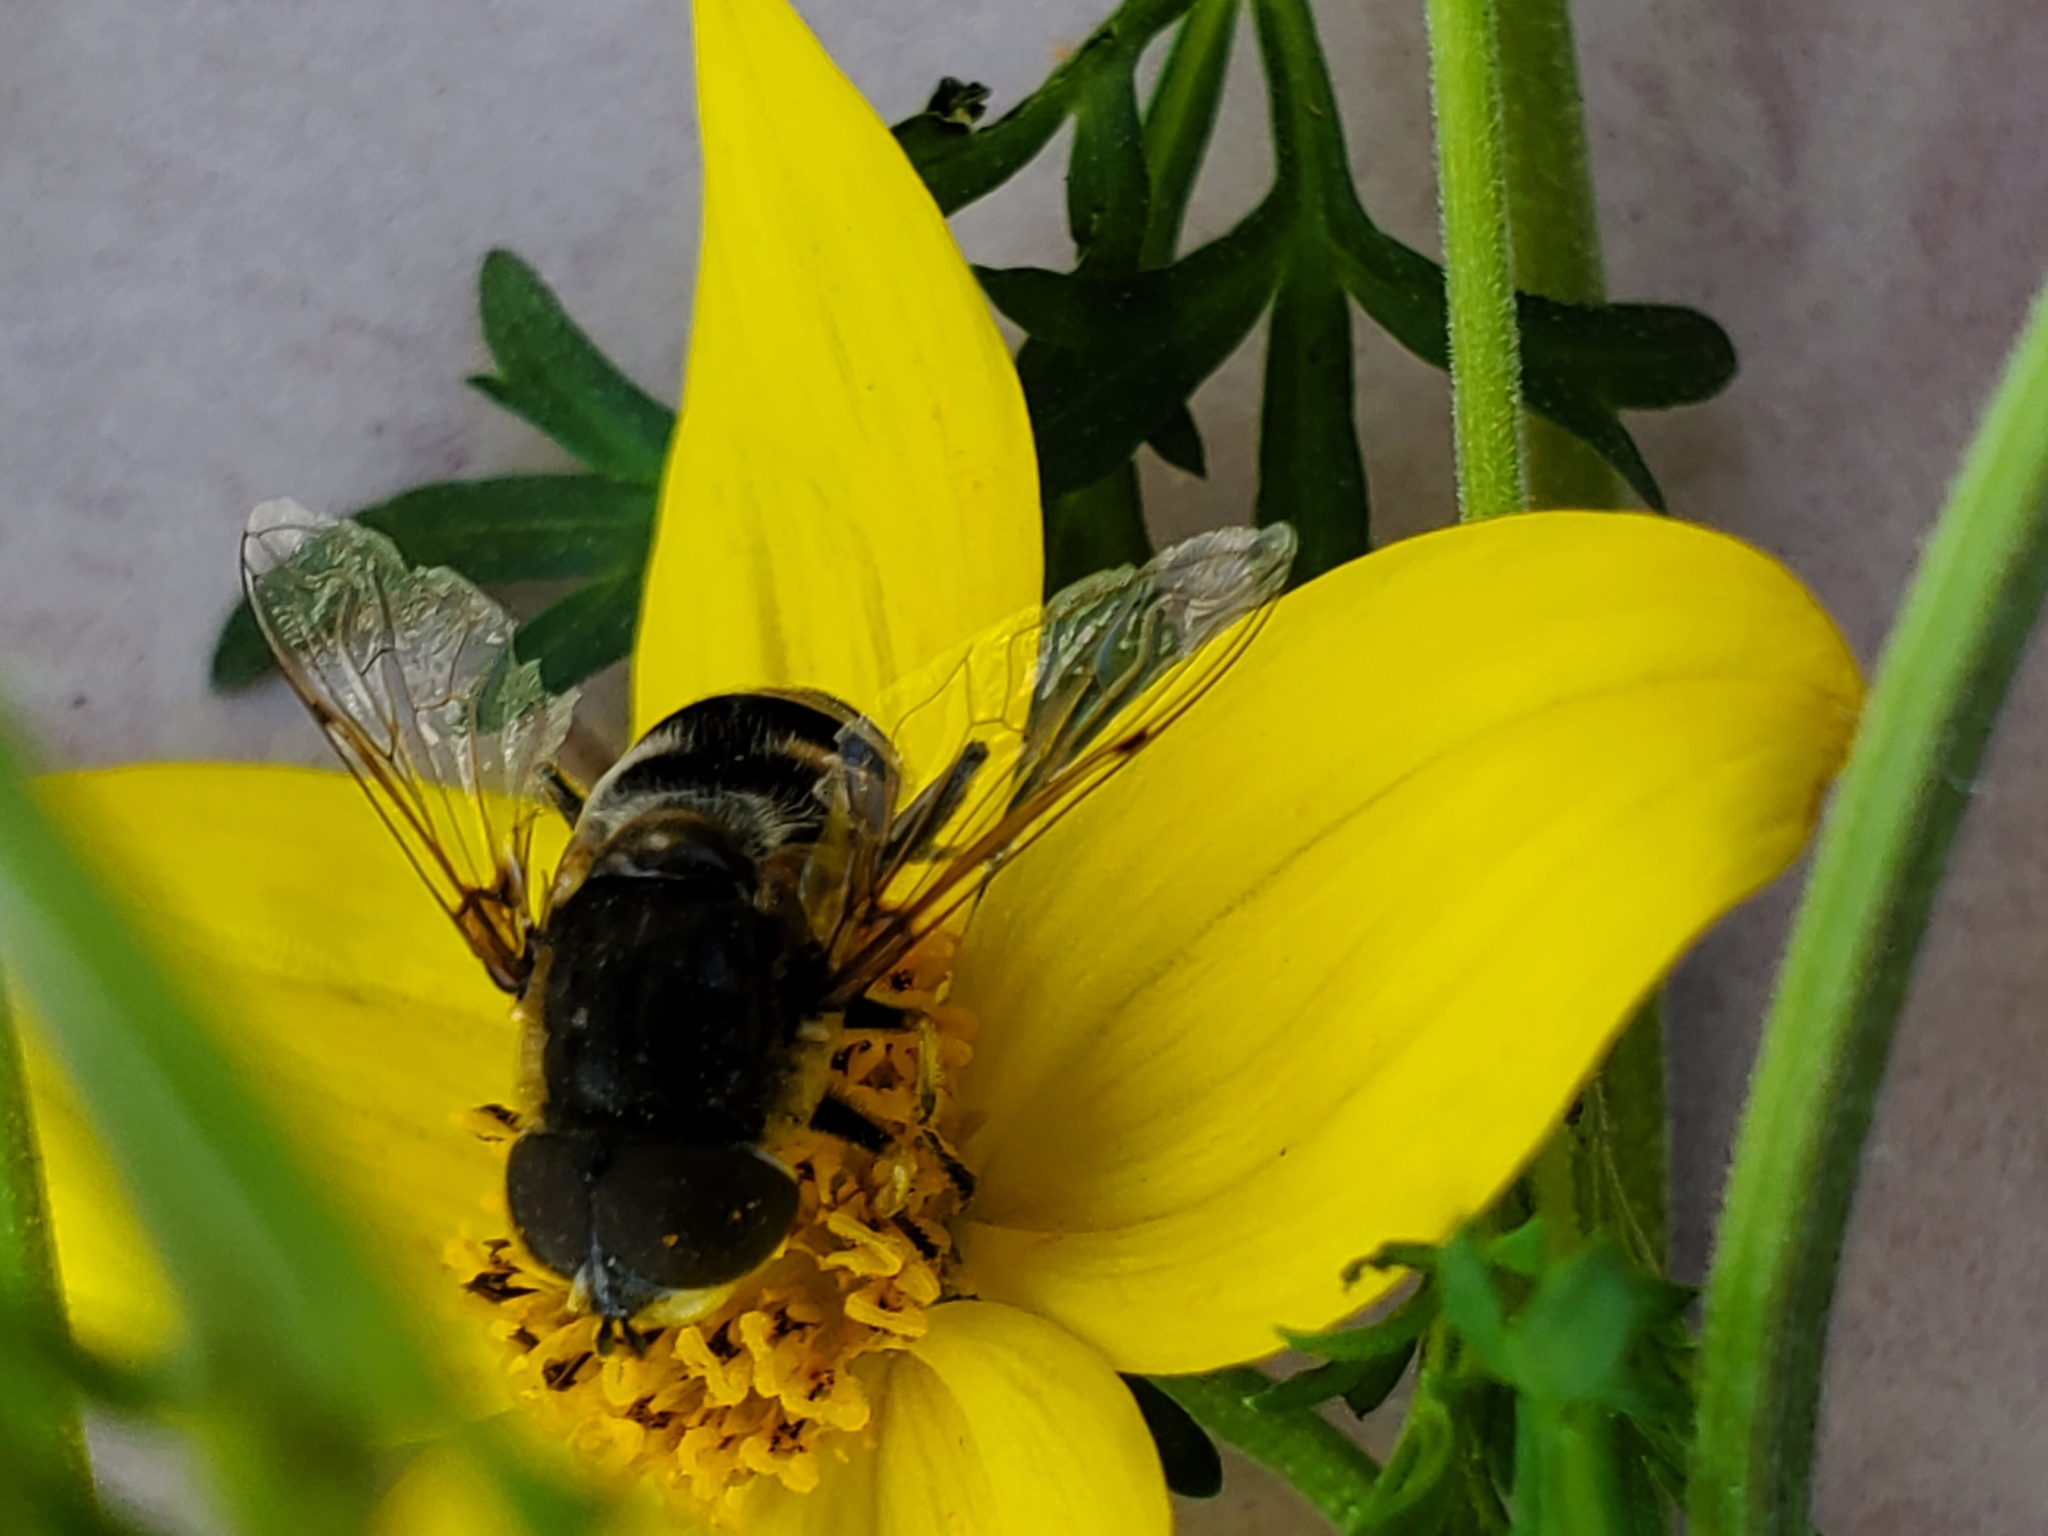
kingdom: Animalia
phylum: Arthropoda
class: Insecta
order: Diptera
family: Syrphidae
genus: Eristalis
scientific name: Eristalis dimidiata
